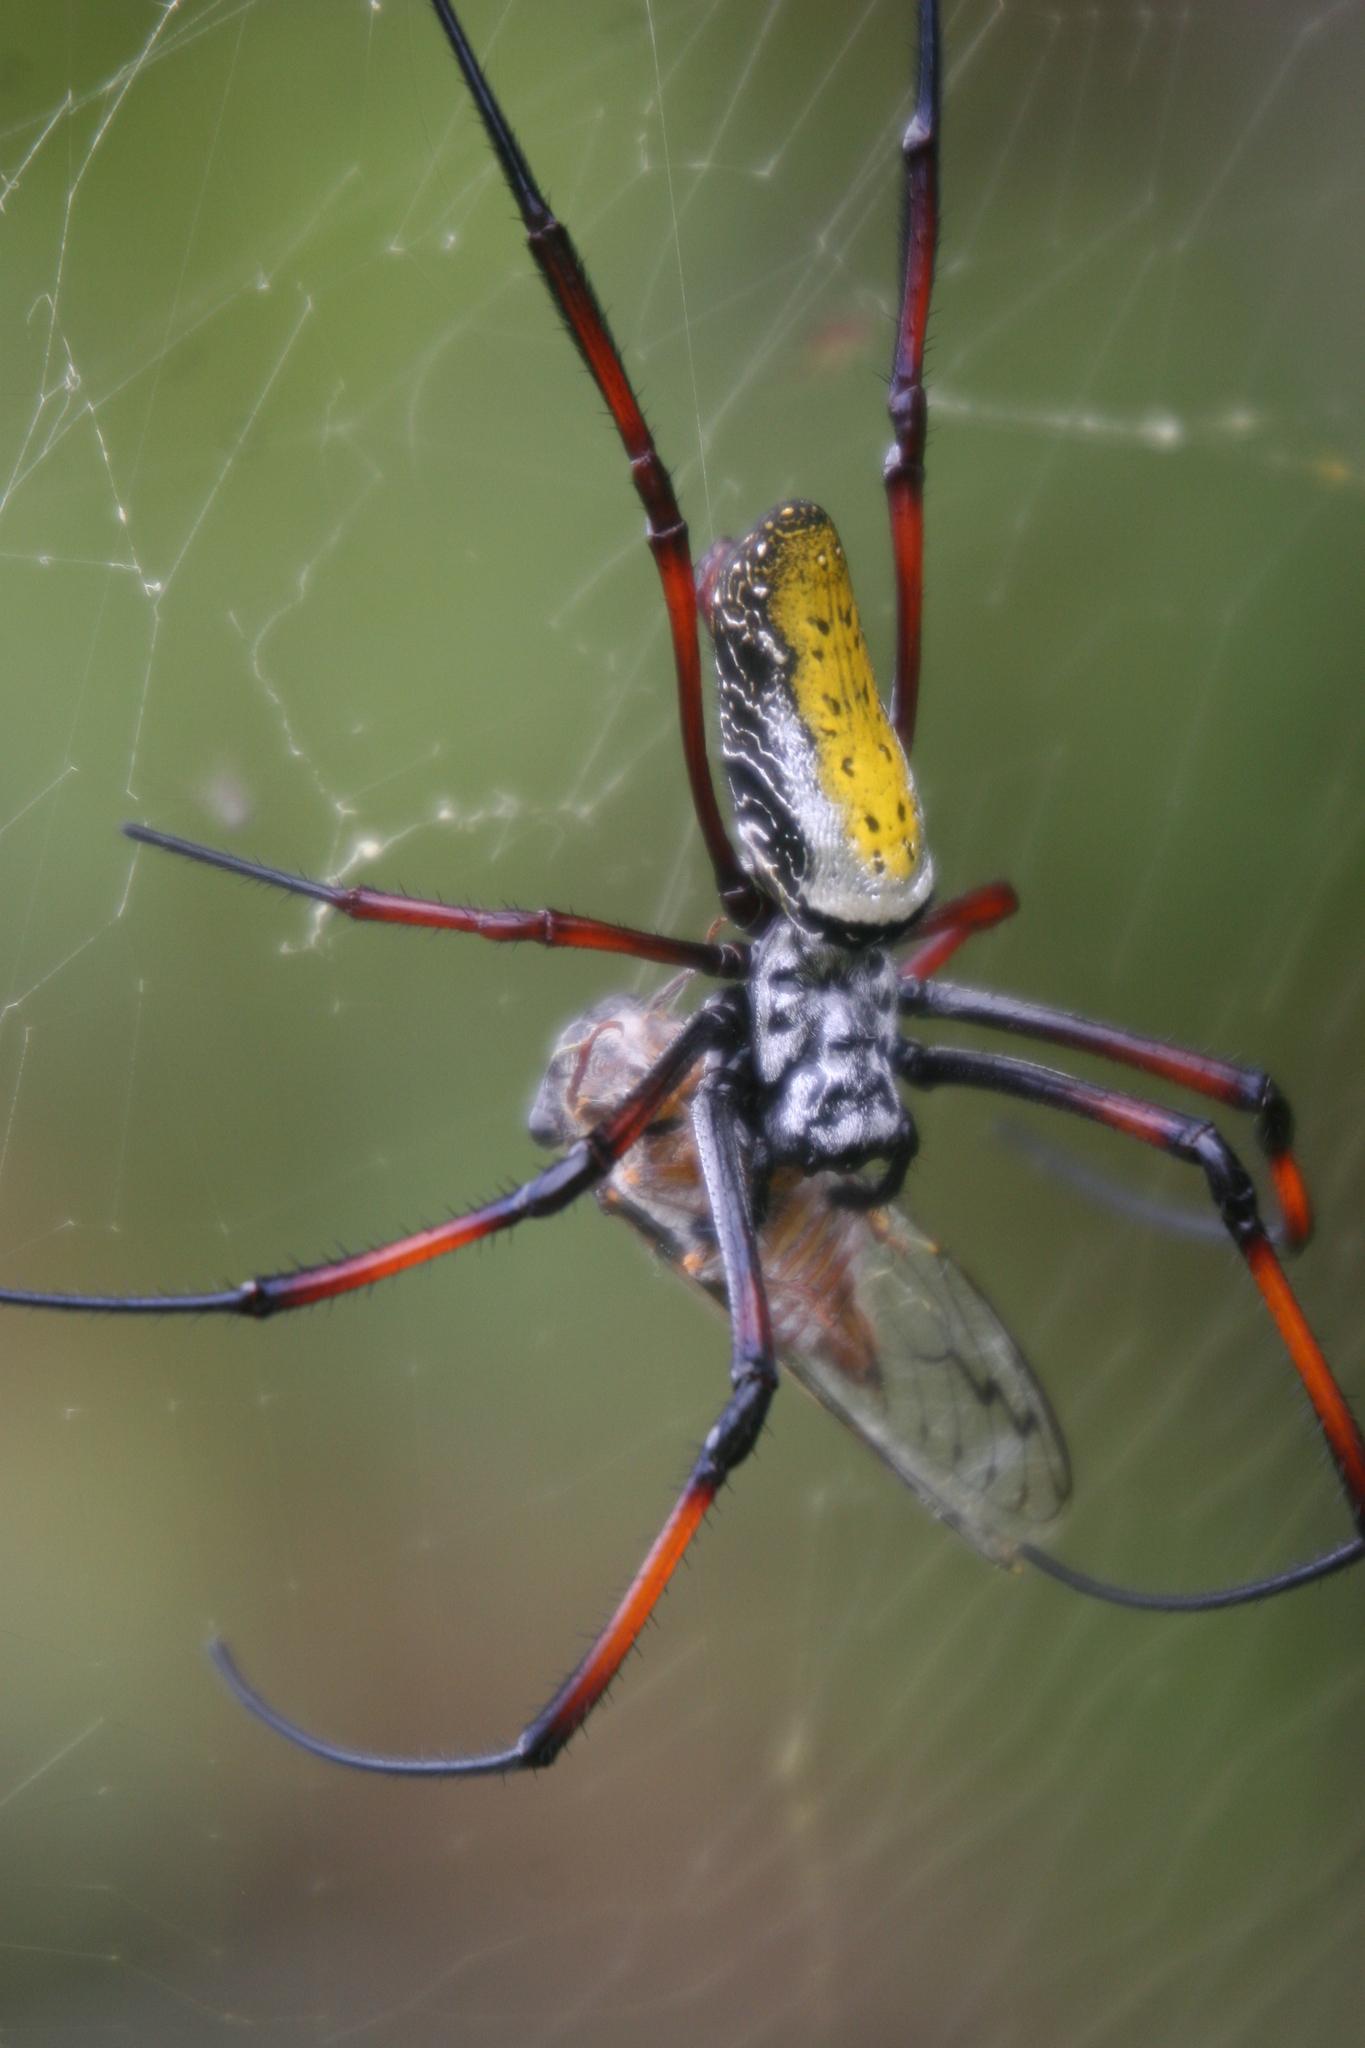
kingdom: Animalia
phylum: Arthropoda
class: Arachnida
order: Araneae
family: Araneidae
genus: Trichonephila
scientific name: Trichonephila inaurata
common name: Red-legged golden orb weaver
